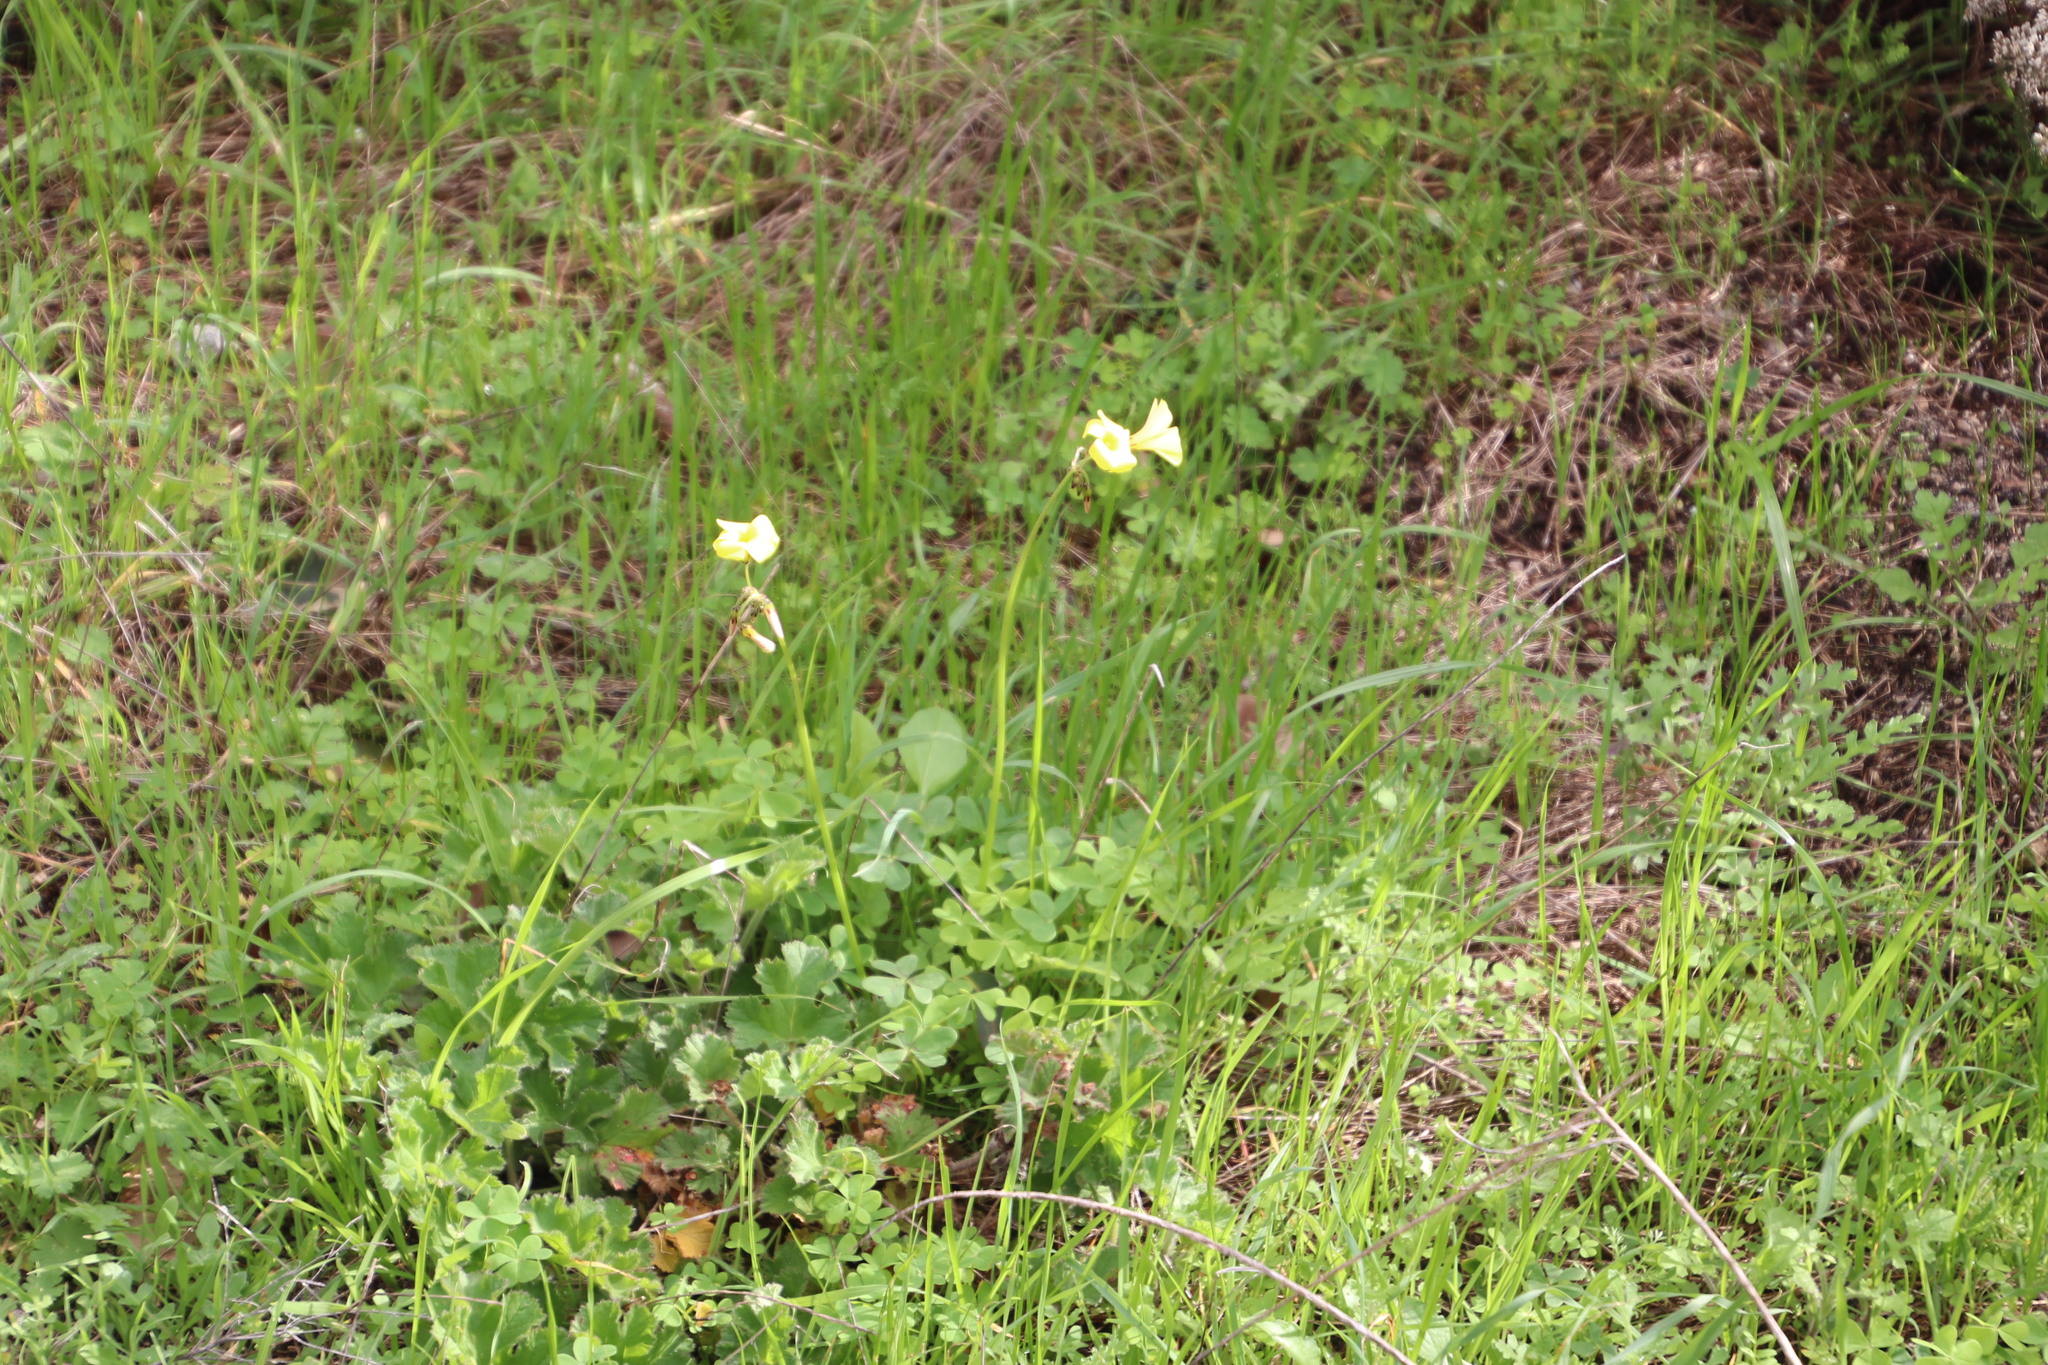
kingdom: Plantae
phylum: Tracheophyta
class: Magnoliopsida
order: Oxalidales
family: Oxalidaceae
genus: Oxalis
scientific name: Oxalis pes-caprae
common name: Bermuda-buttercup
